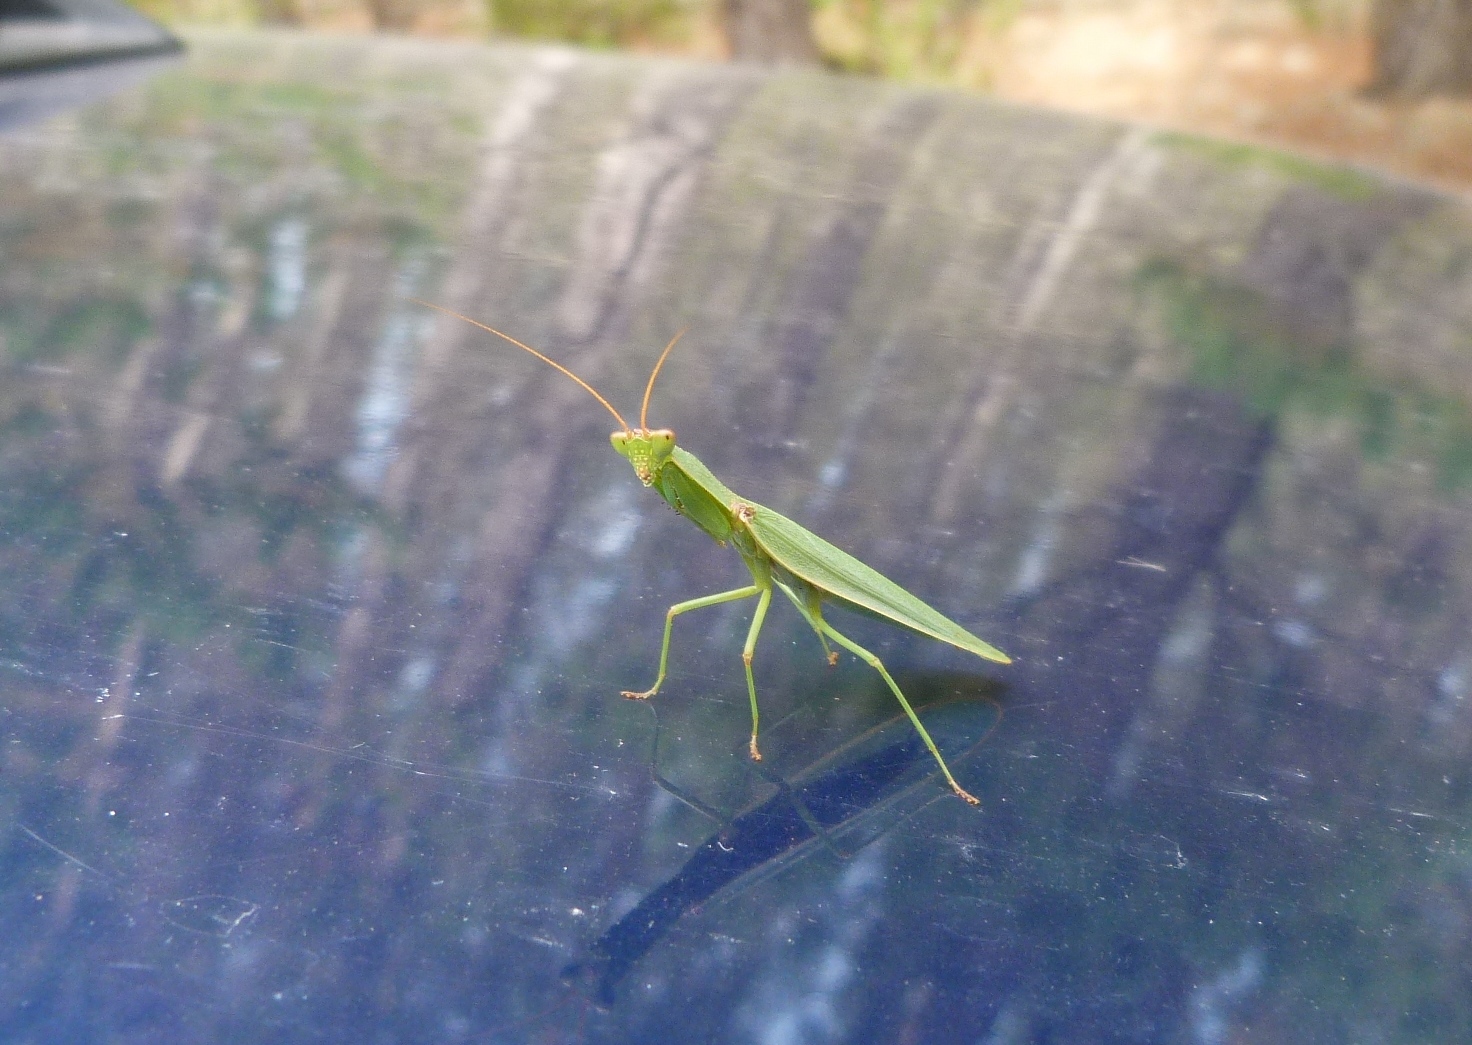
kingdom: Animalia
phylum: Arthropoda
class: Insecta
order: Mantodea
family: Mantidae
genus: Orthodera
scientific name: Orthodera novaezealandiae
